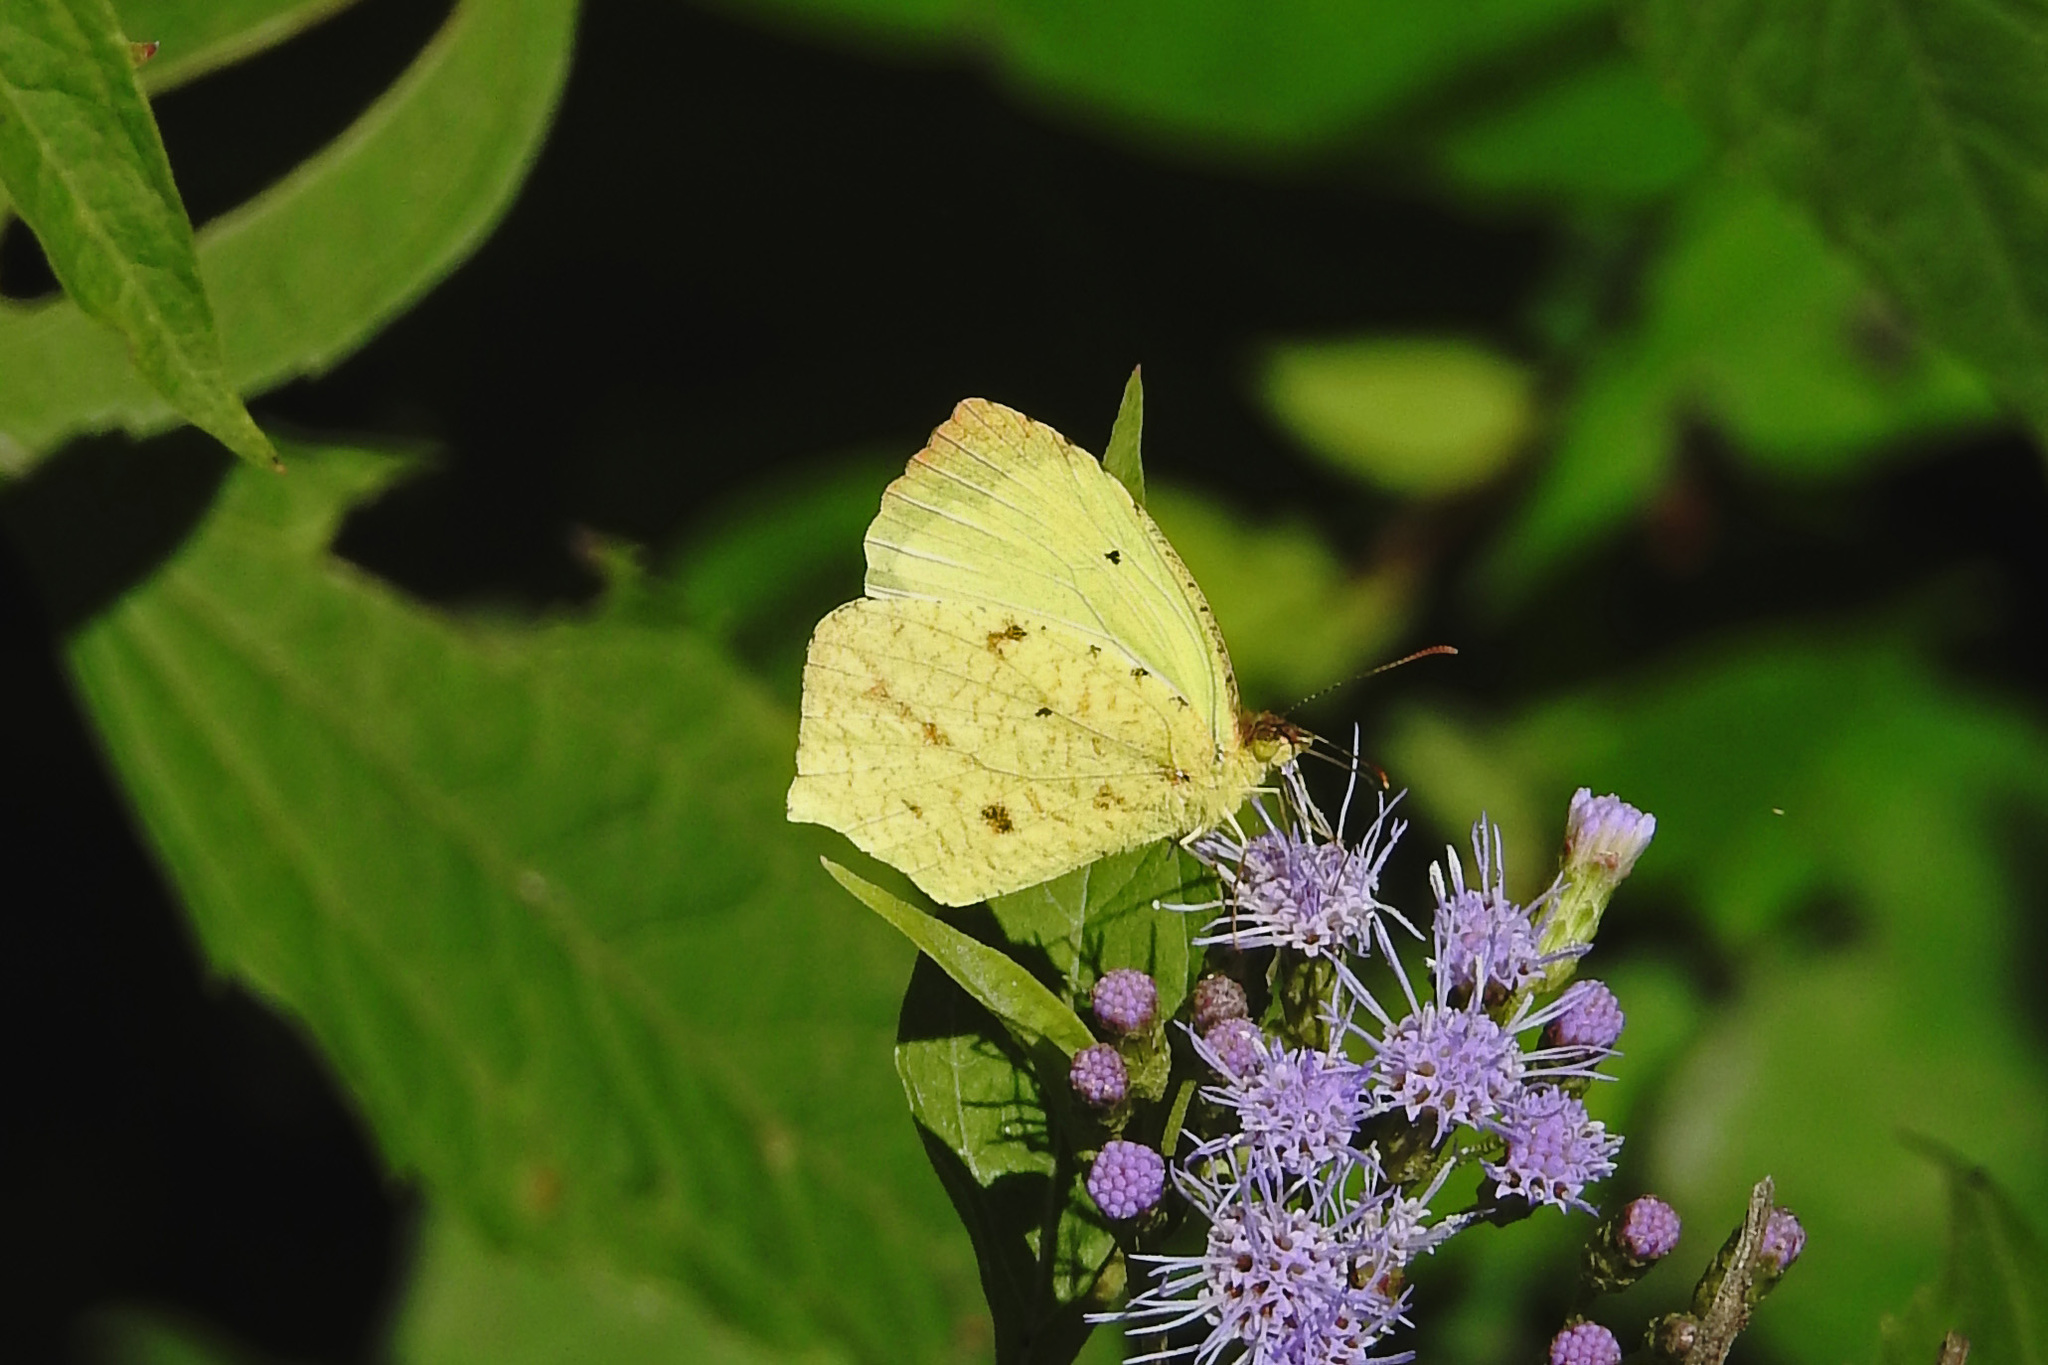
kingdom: Animalia
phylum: Arthropoda
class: Insecta
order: Lepidoptera
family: Pieridae
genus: Abaeis
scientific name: Abaeis salome
